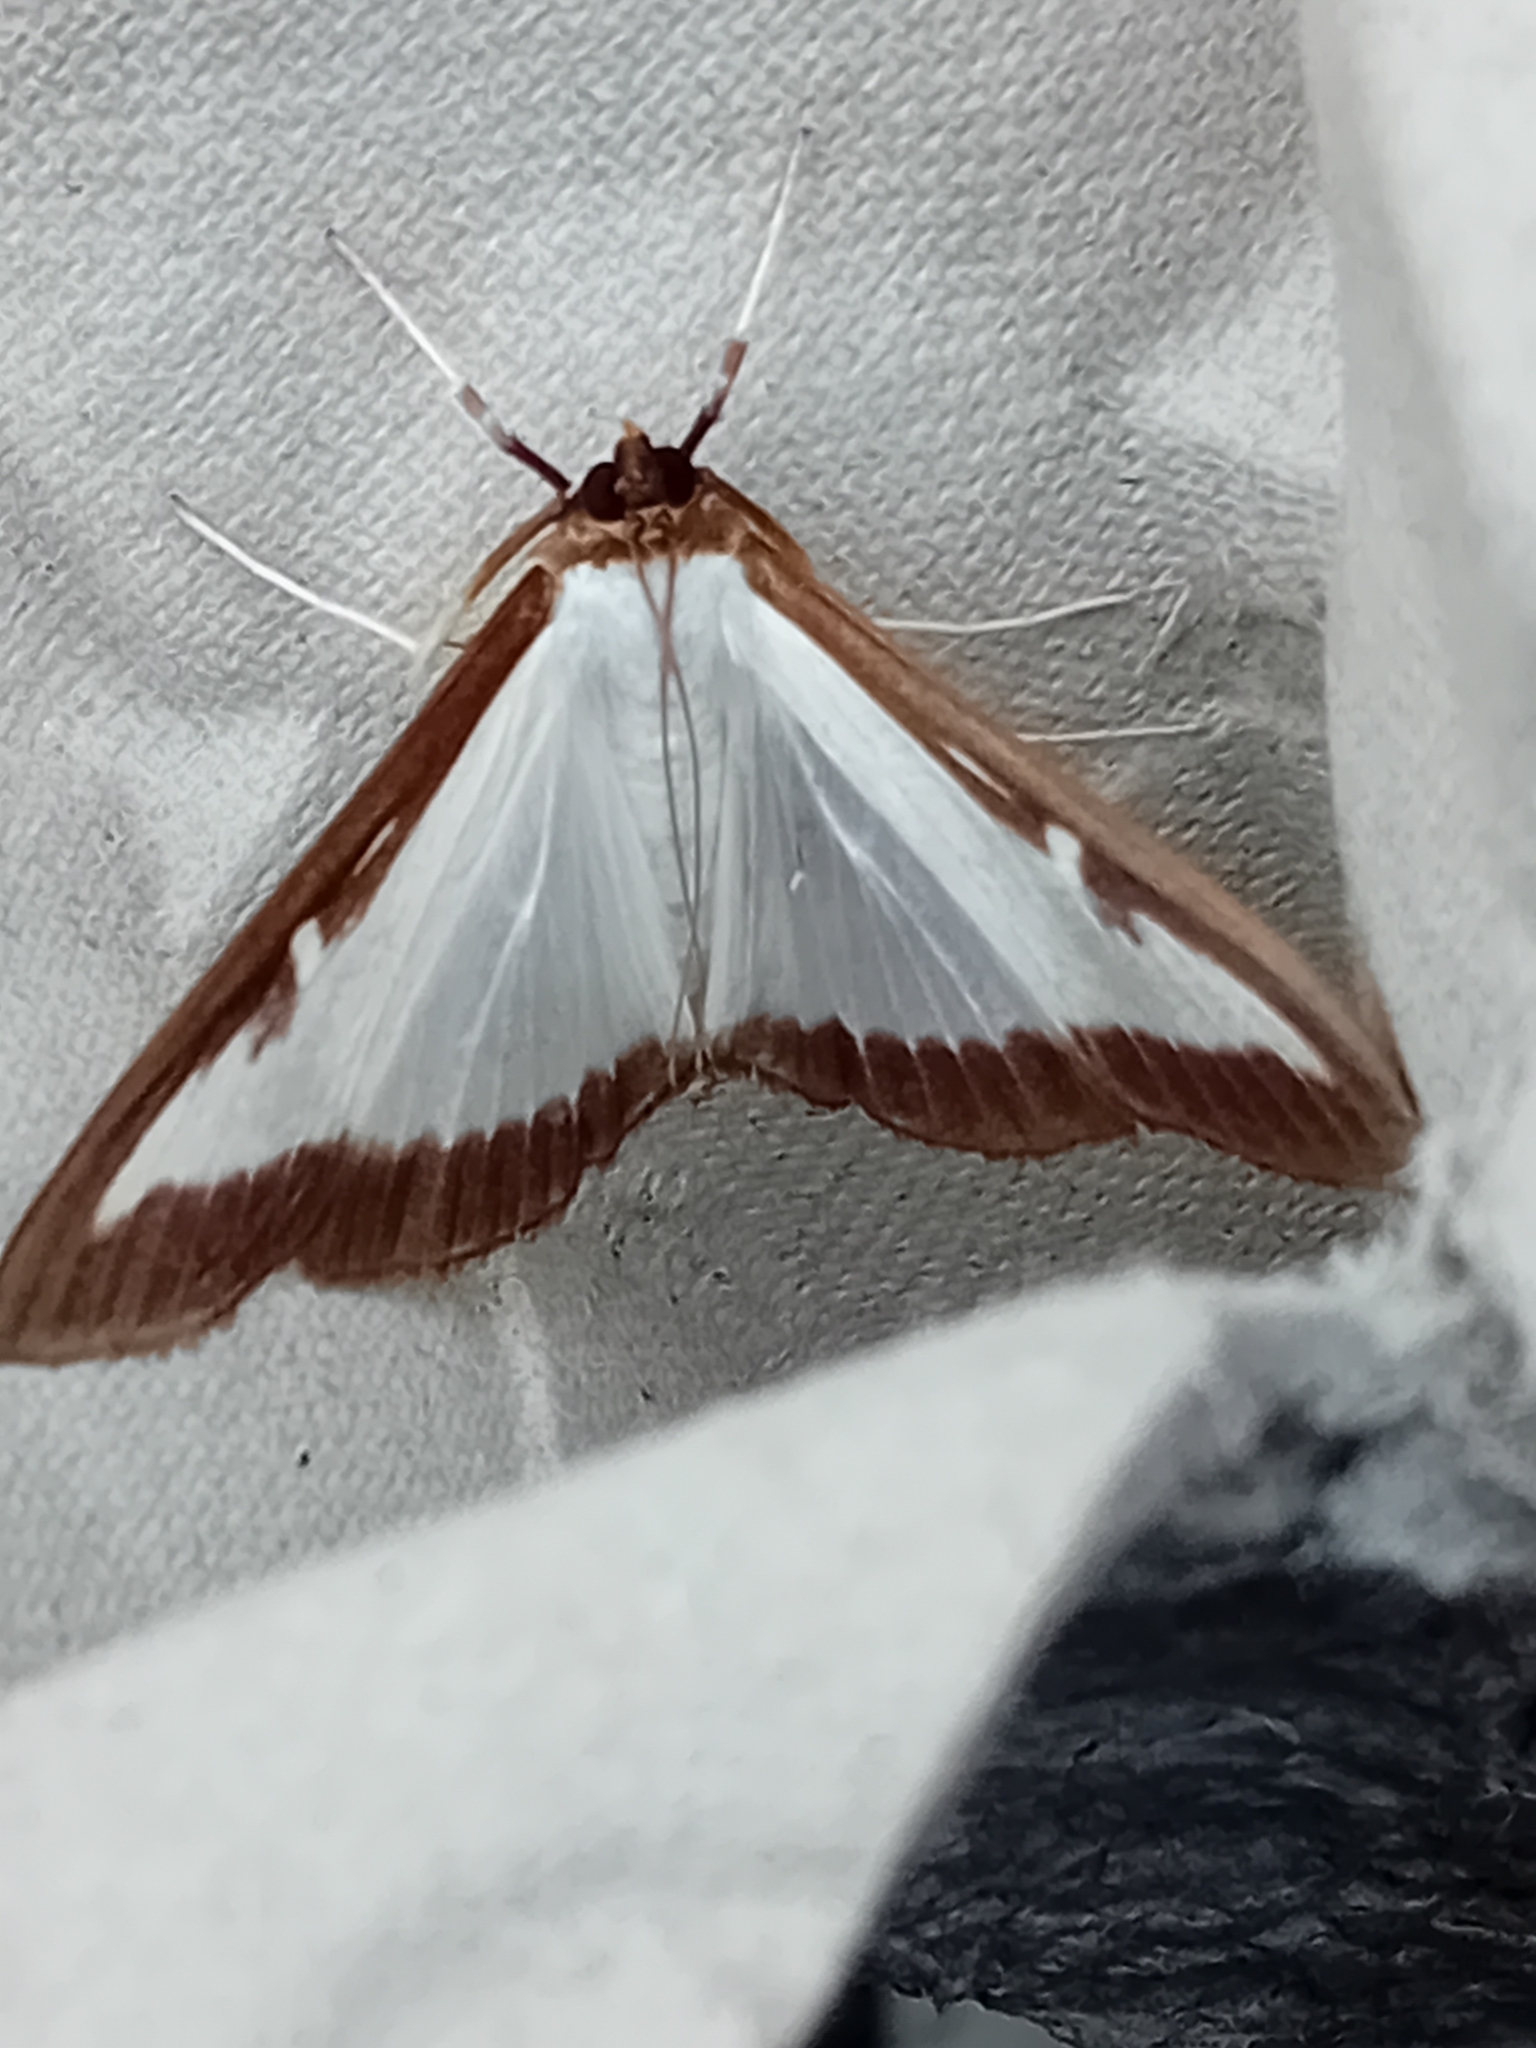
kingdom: Animalia
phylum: Arthropoda
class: Insecta
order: Lepidoptera
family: Crambidae
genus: Cydalima
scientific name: Cydalima perspectalis
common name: Box tree moth
